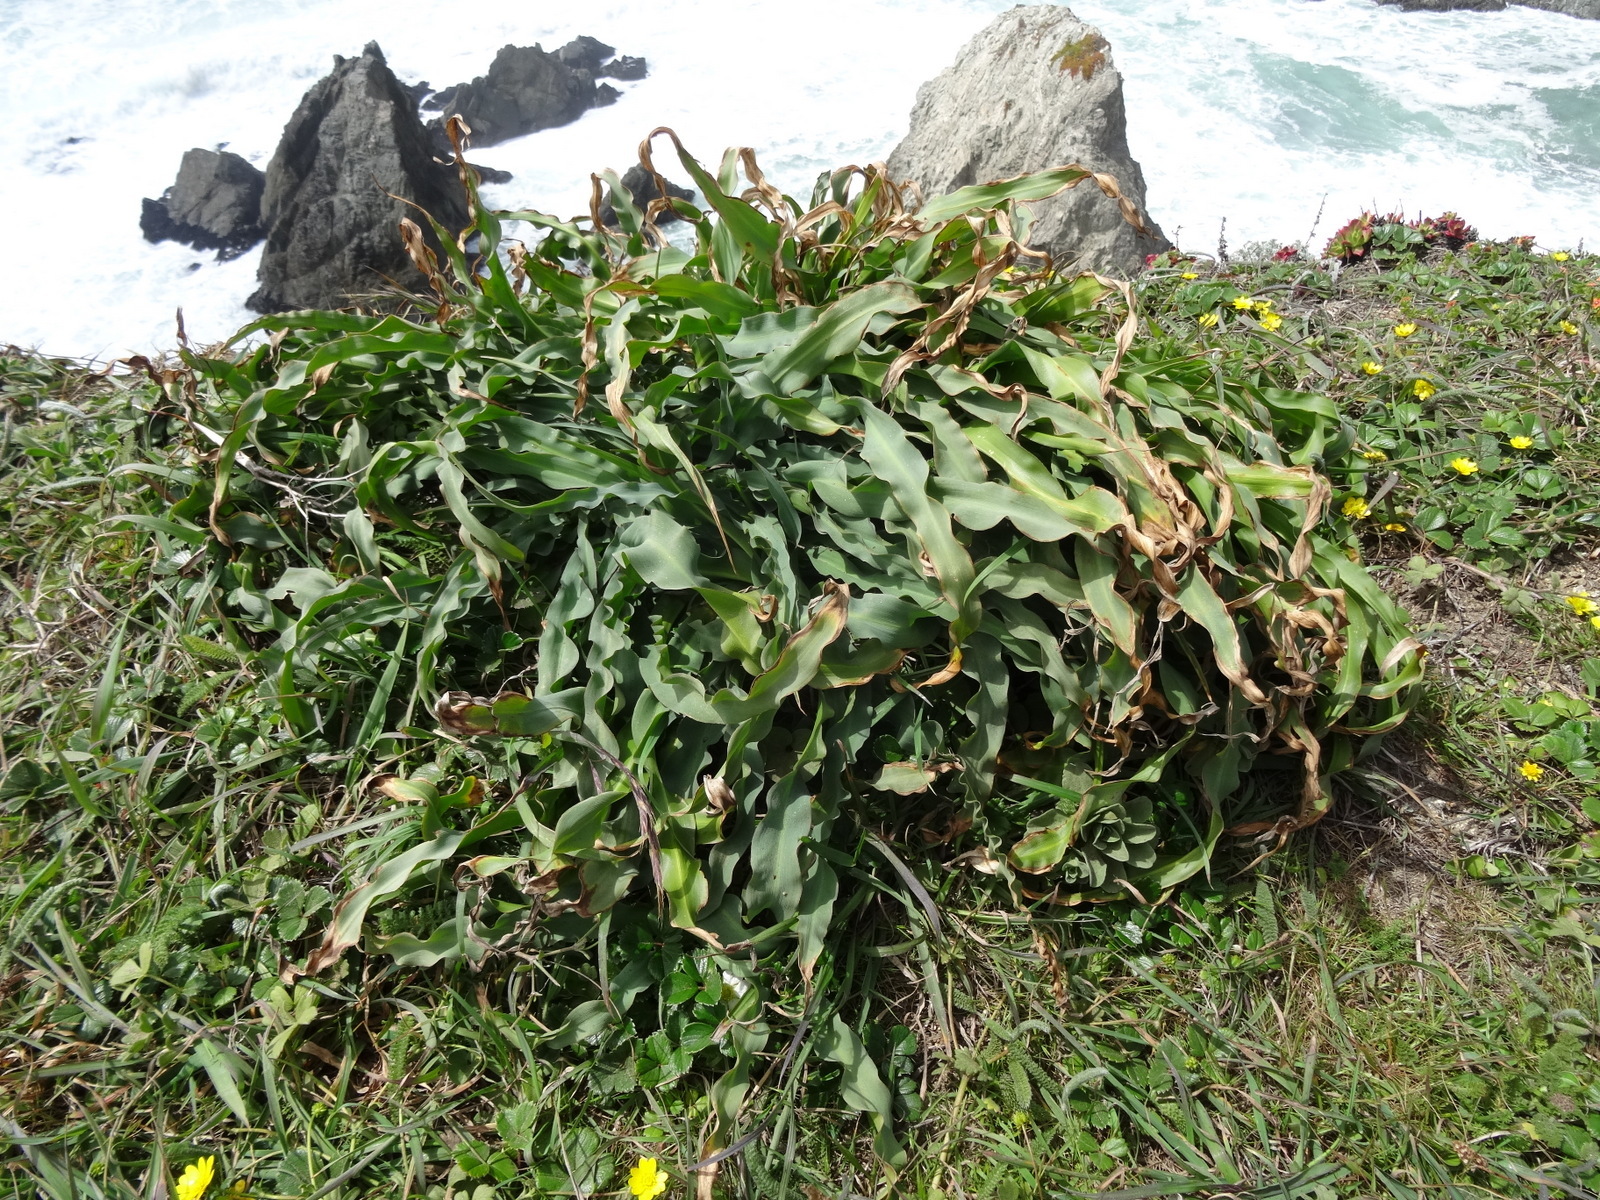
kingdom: Plantae
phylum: Tracheophyta
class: Liliopsida
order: Asparagales
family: Asparagaceae
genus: Chlorogalum
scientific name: Chlorogalum pomeridianum
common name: Amole
